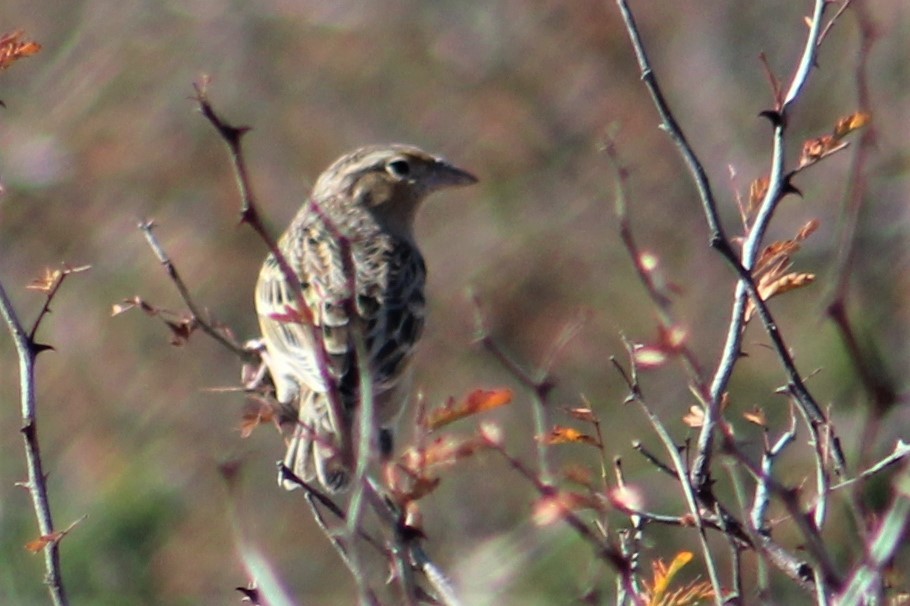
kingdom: Animalia
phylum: Chordata
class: Aves
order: Passeriformes
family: Passerellidae
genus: Ammodramus
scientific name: Ammodramus savannarum
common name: Grasshopper sparrow
